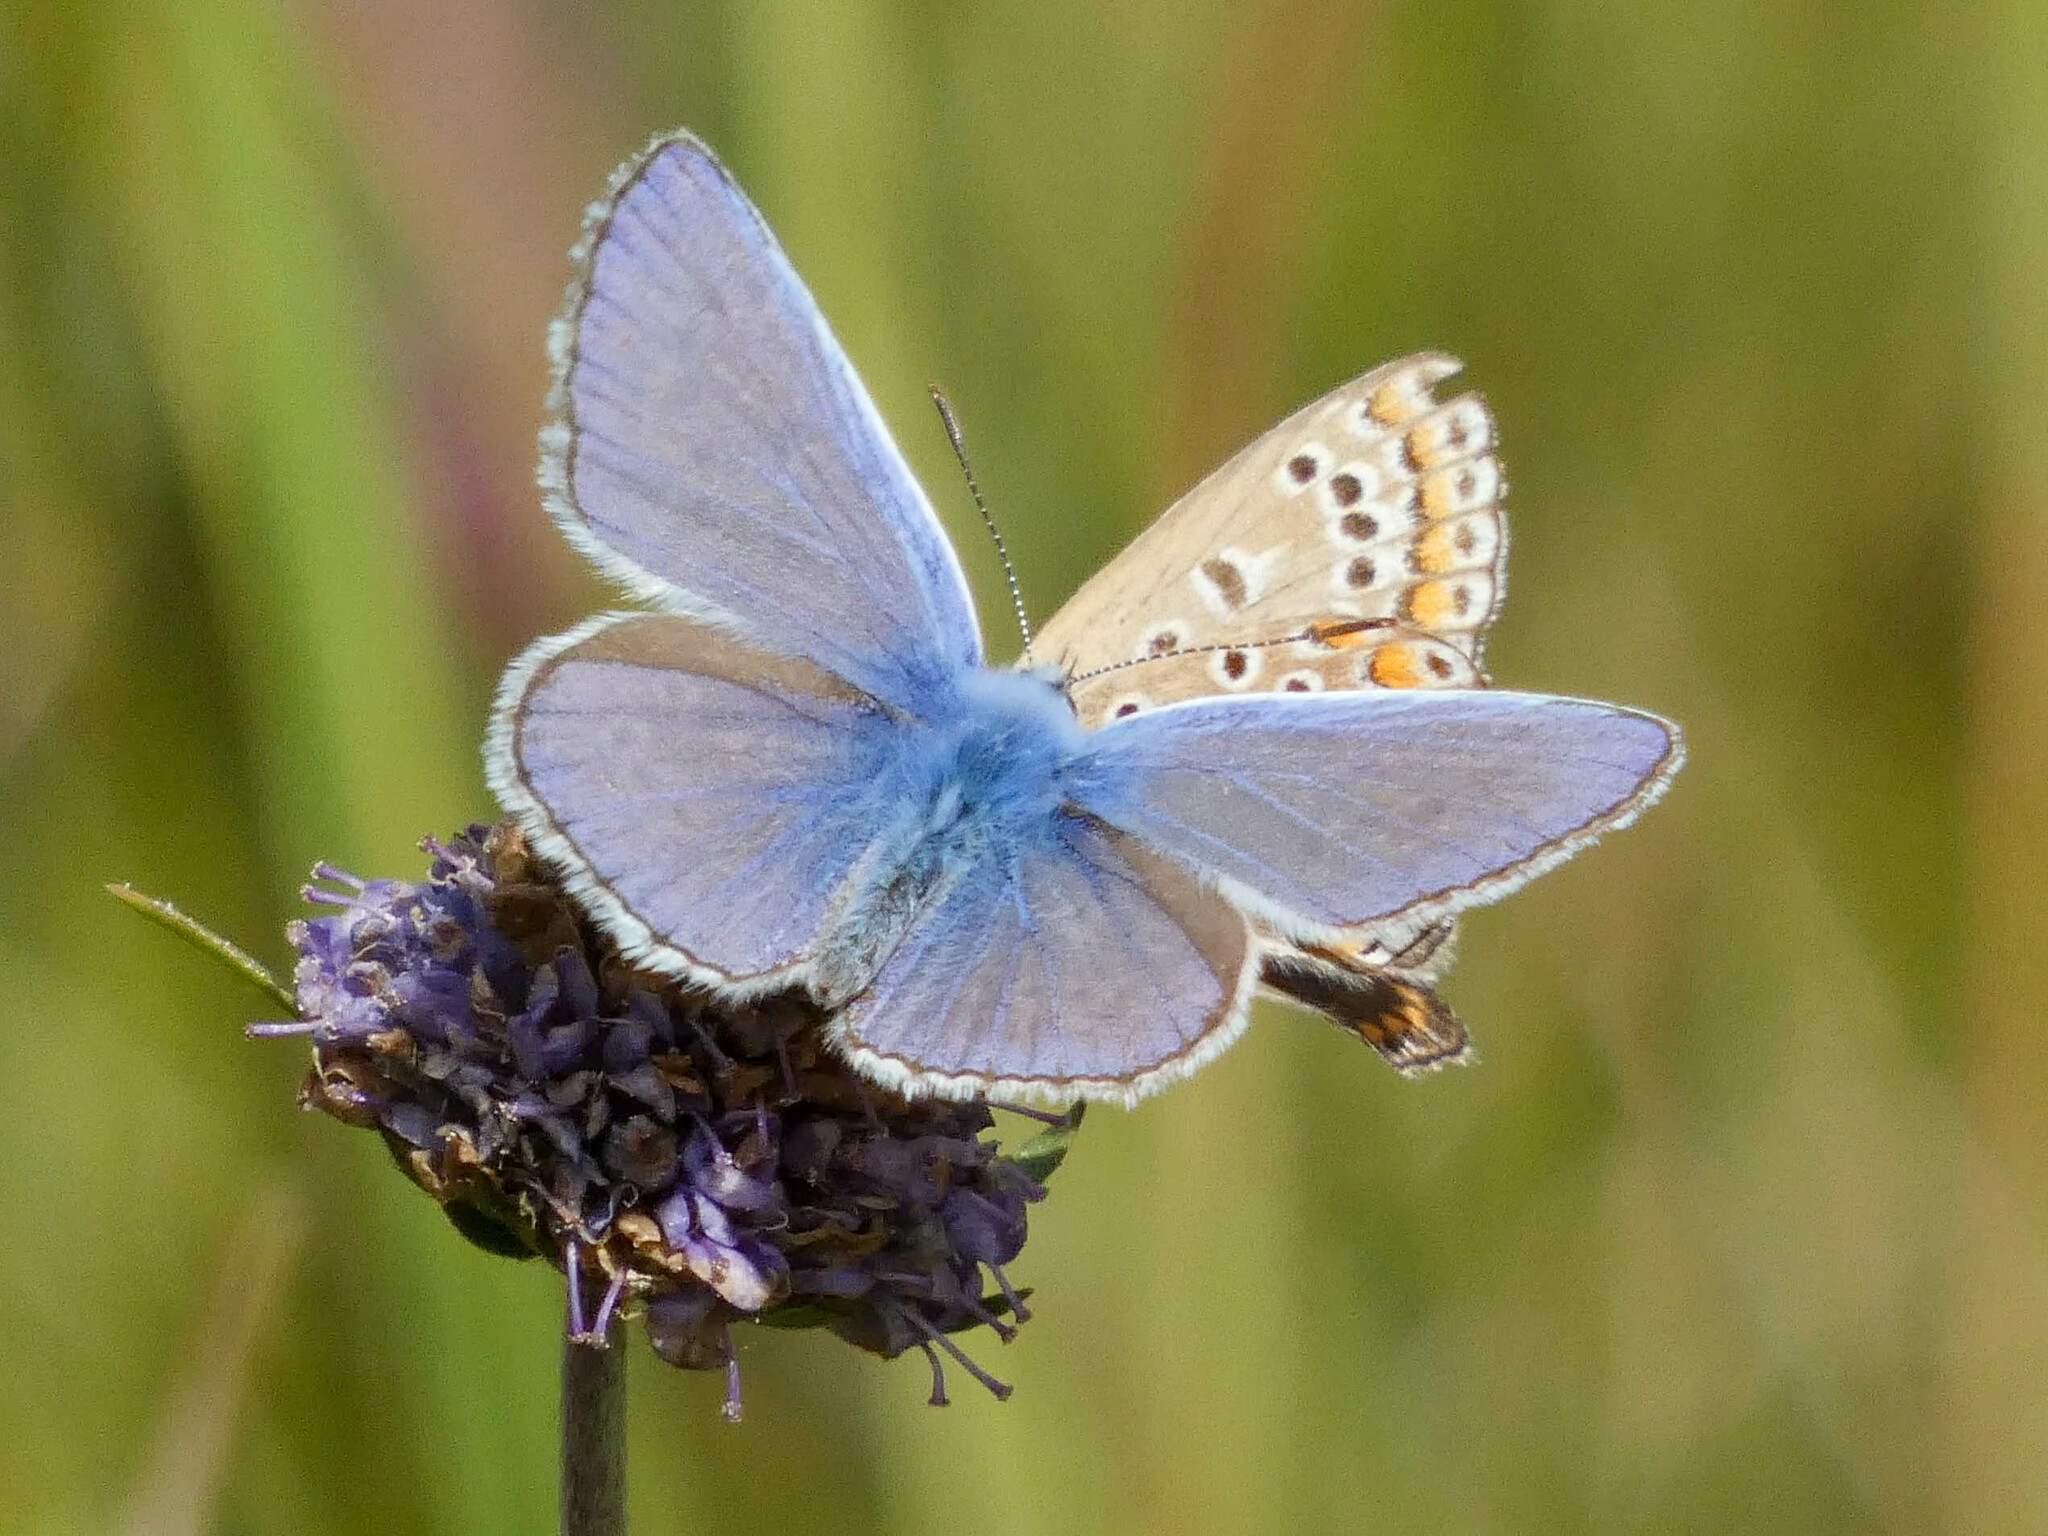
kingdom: Animalia
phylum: Arthropoda
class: Insecta
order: Lepidoptera
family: Lycaenidae
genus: Polyommatus
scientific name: Polyommatus icarus
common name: Common blue
